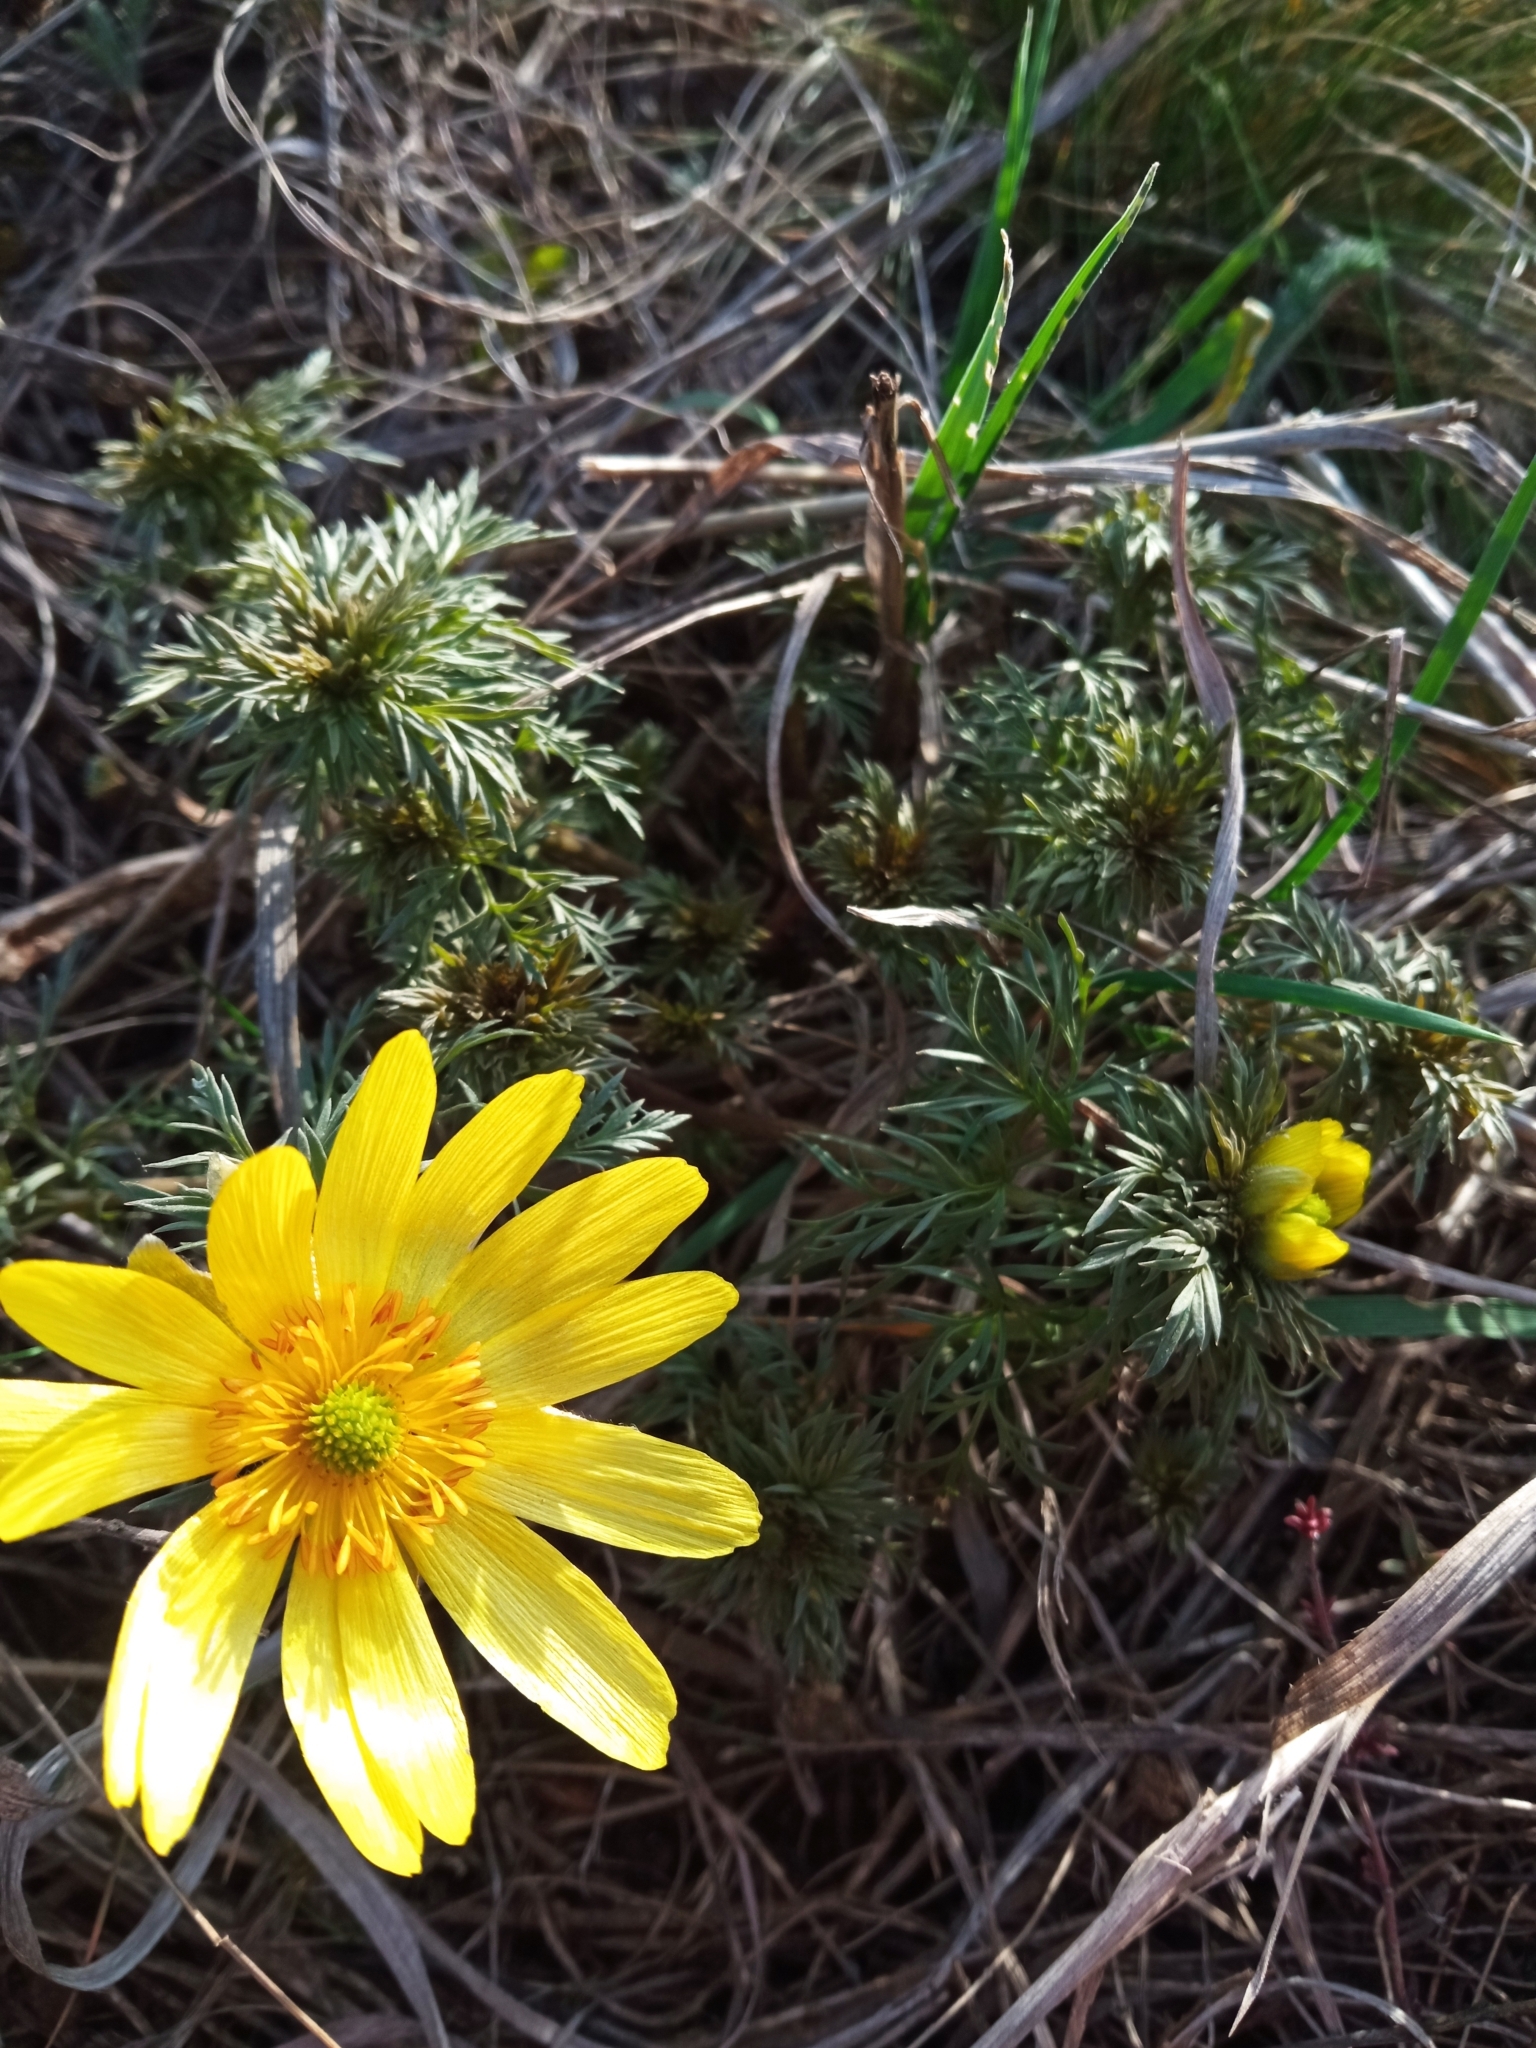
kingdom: Plantae
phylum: Tracheophyta
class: Magnoliopsida
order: Ranunculales
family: Ranunculaceae
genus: Adonis
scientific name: Adonis volgensis
